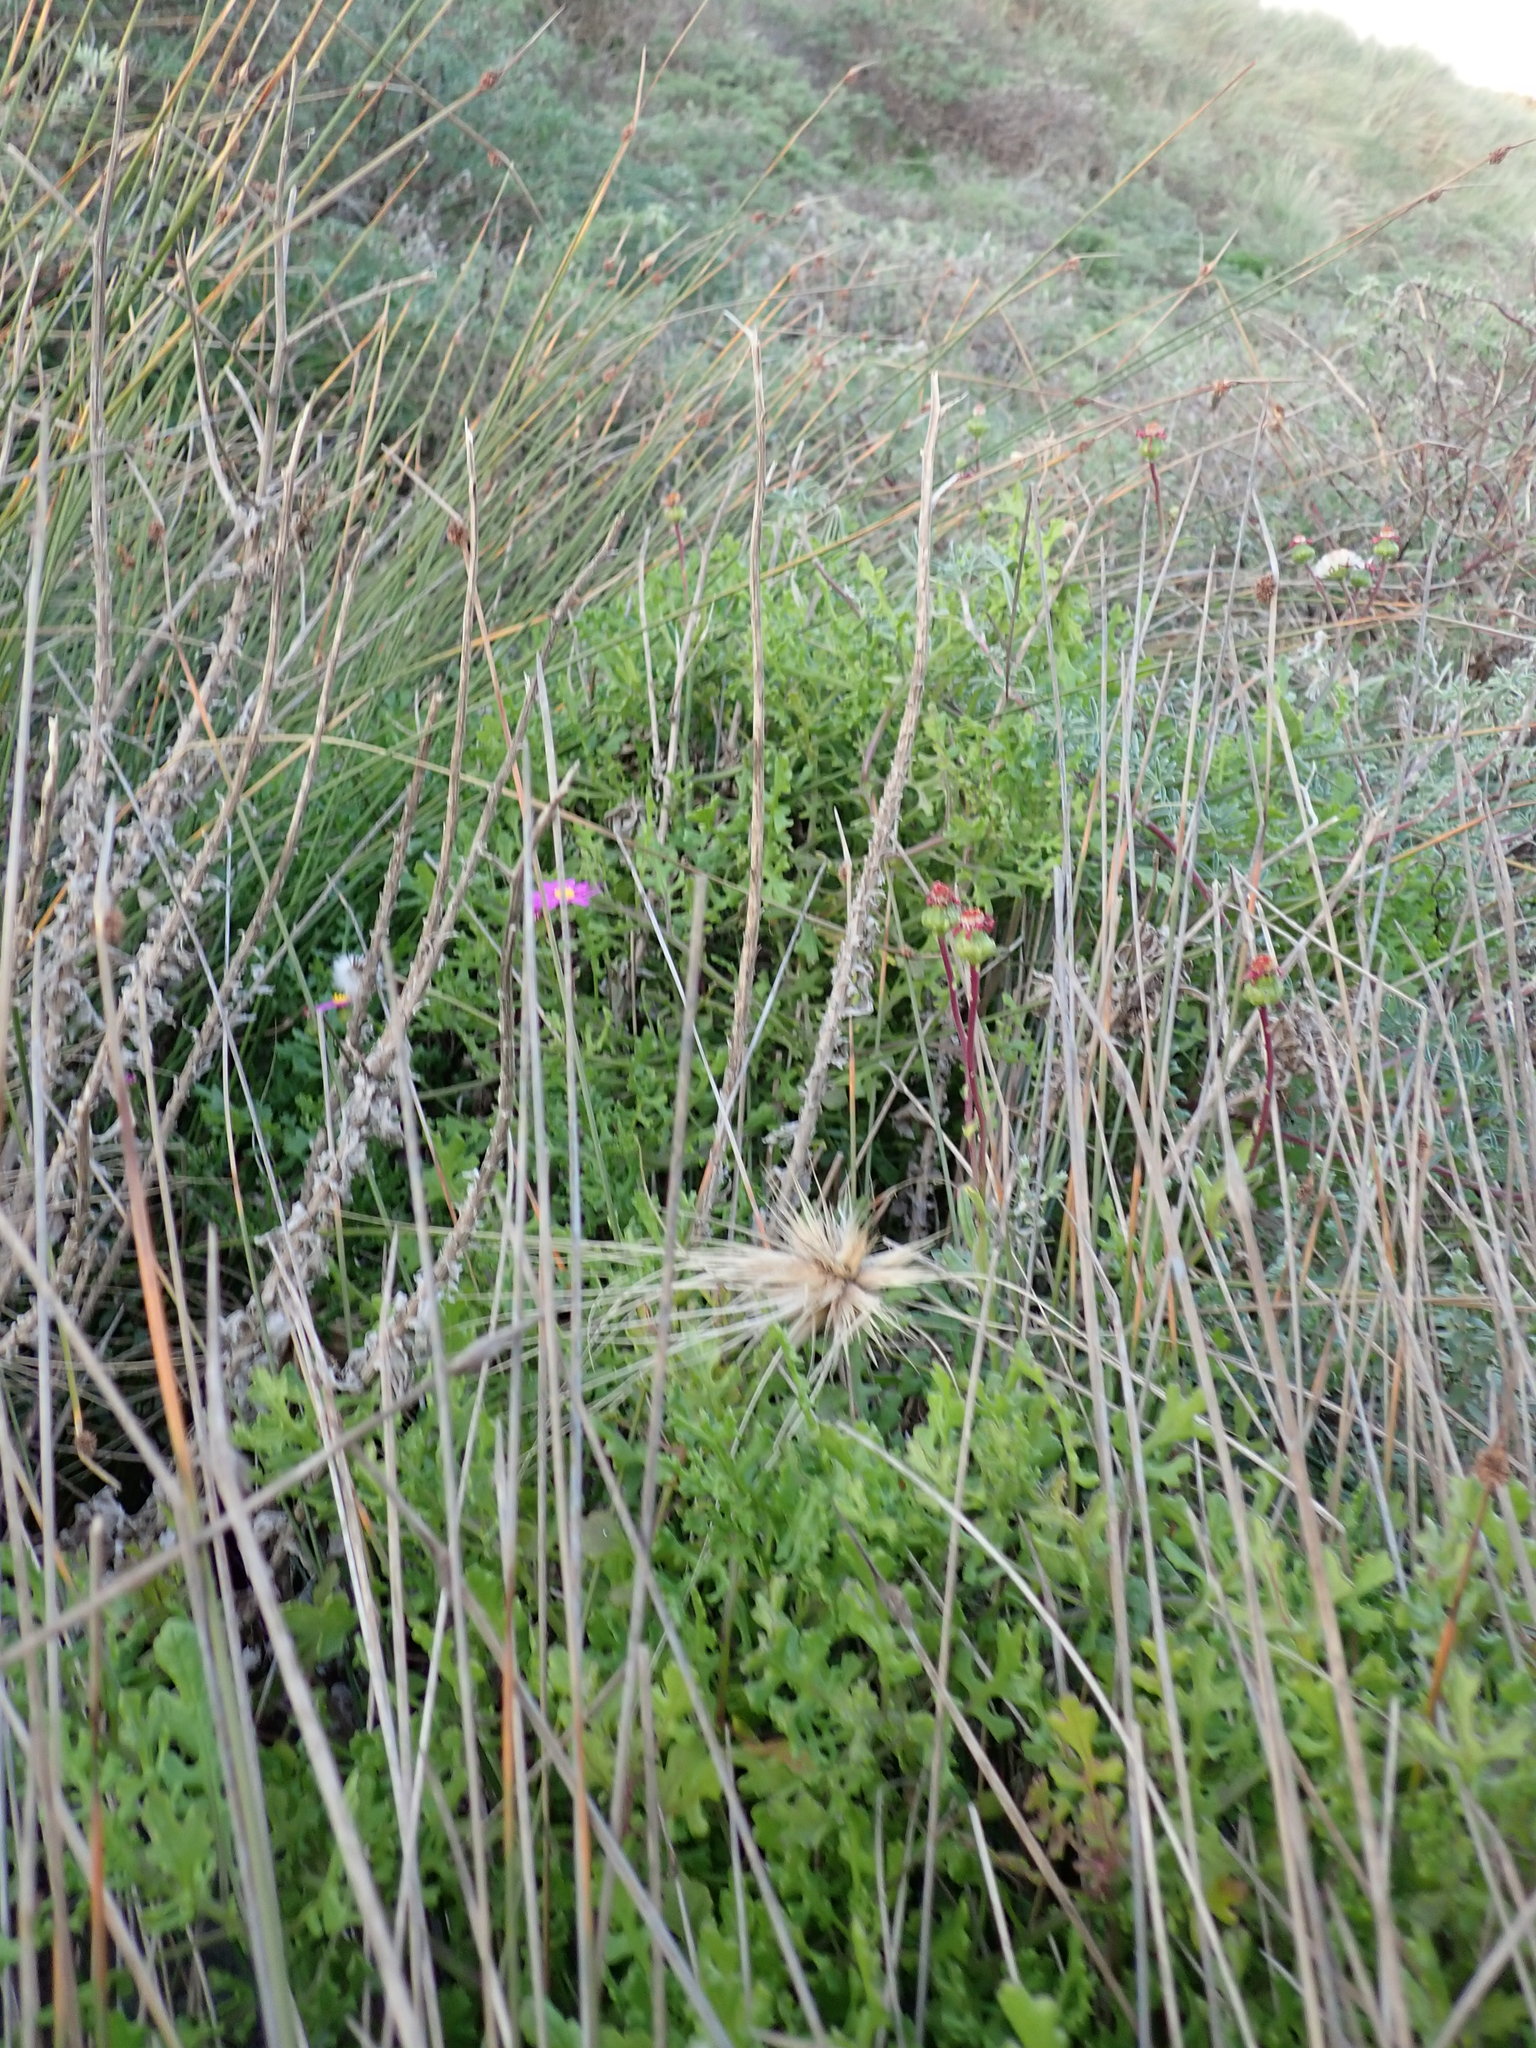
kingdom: Plantae
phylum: Tracheophyta
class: Magnoliopsida
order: Asterales
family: Asteraceae
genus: Senecio
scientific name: Senecio elegans
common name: Purple groundsel
